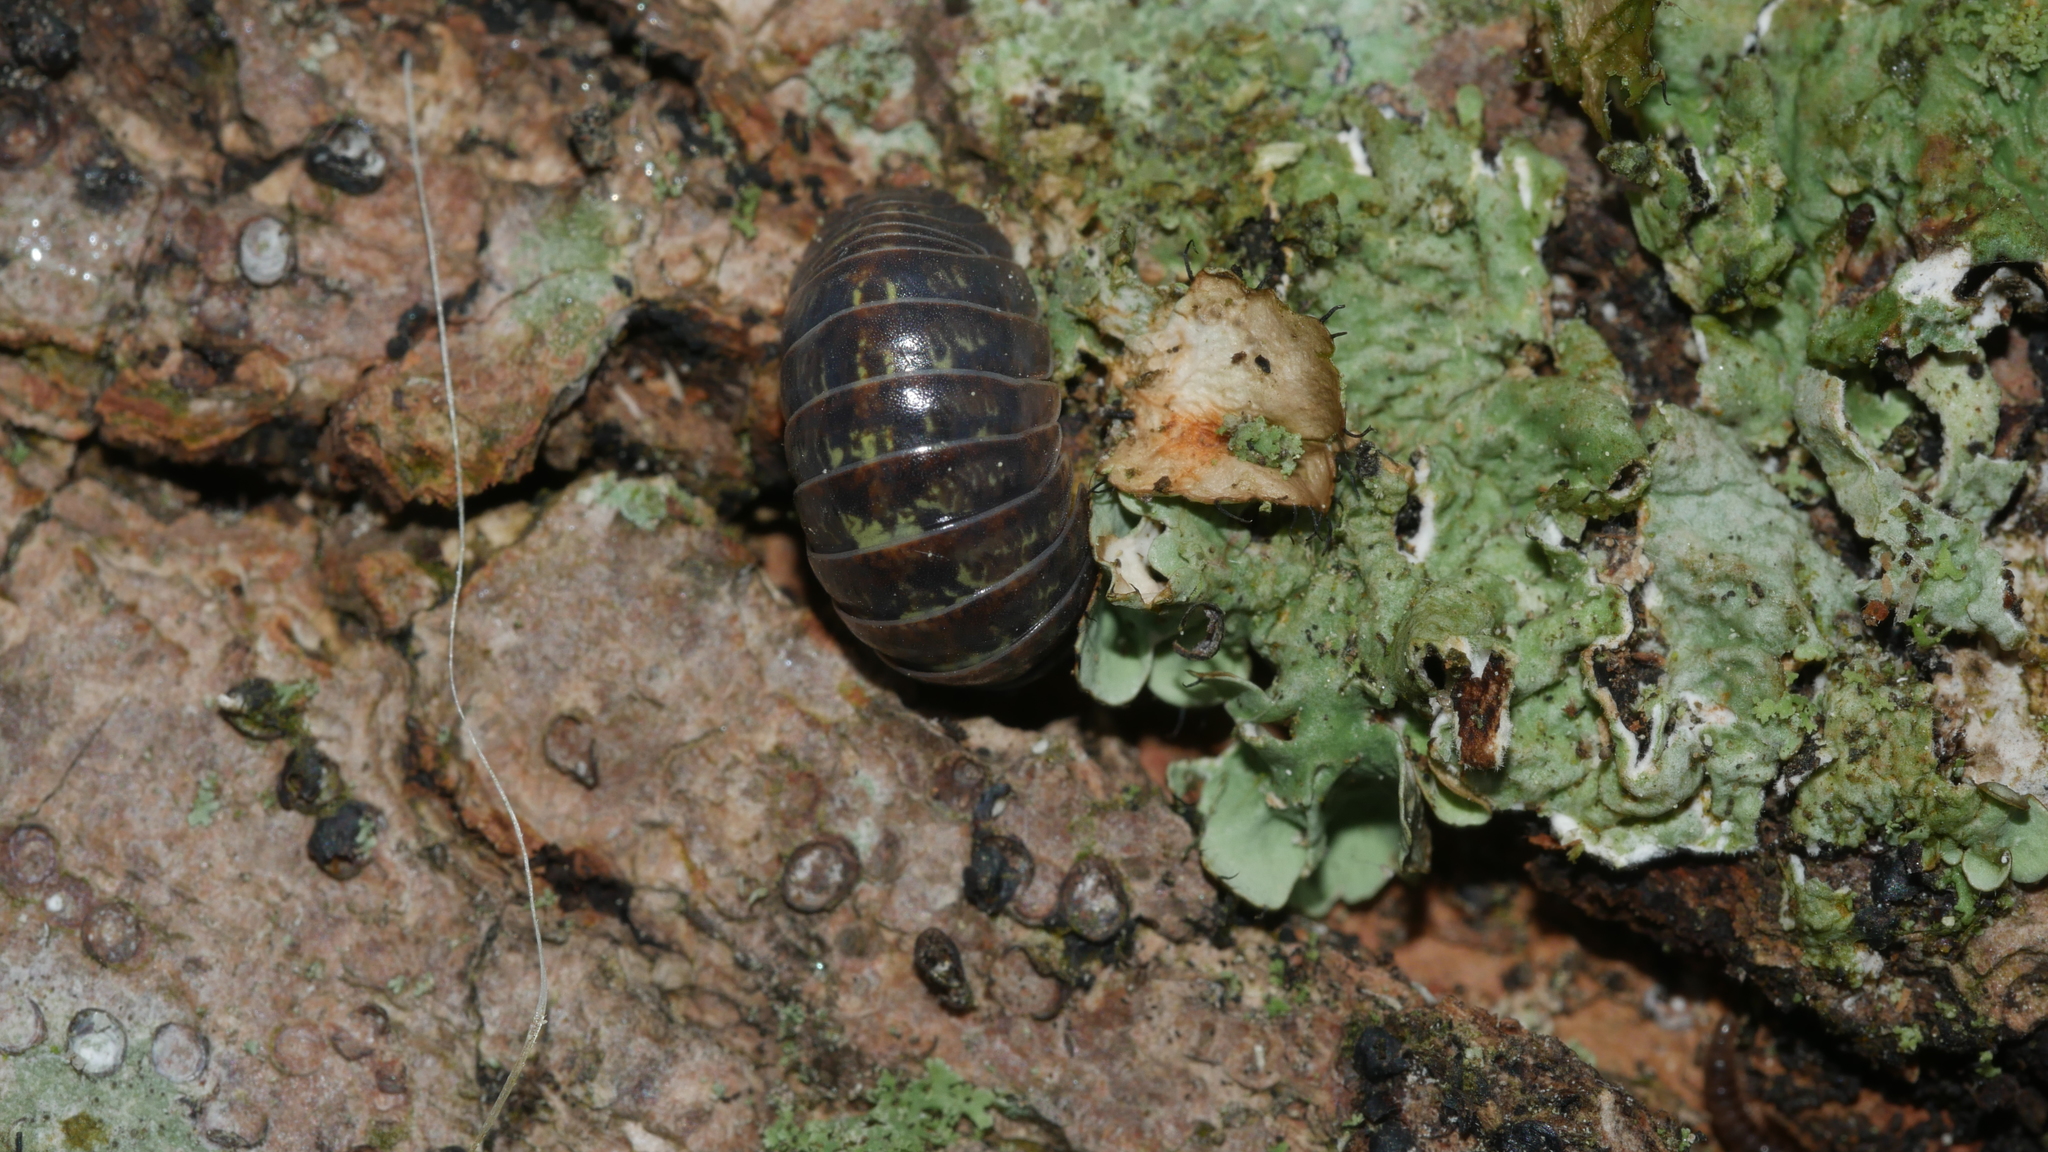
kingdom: Animalia
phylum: Arthropoda
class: Malacostraca
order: Isopoda
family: Armadillidiidae
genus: Armadillidium
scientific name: Armadillidium vulgare
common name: Common pill woodlouse
